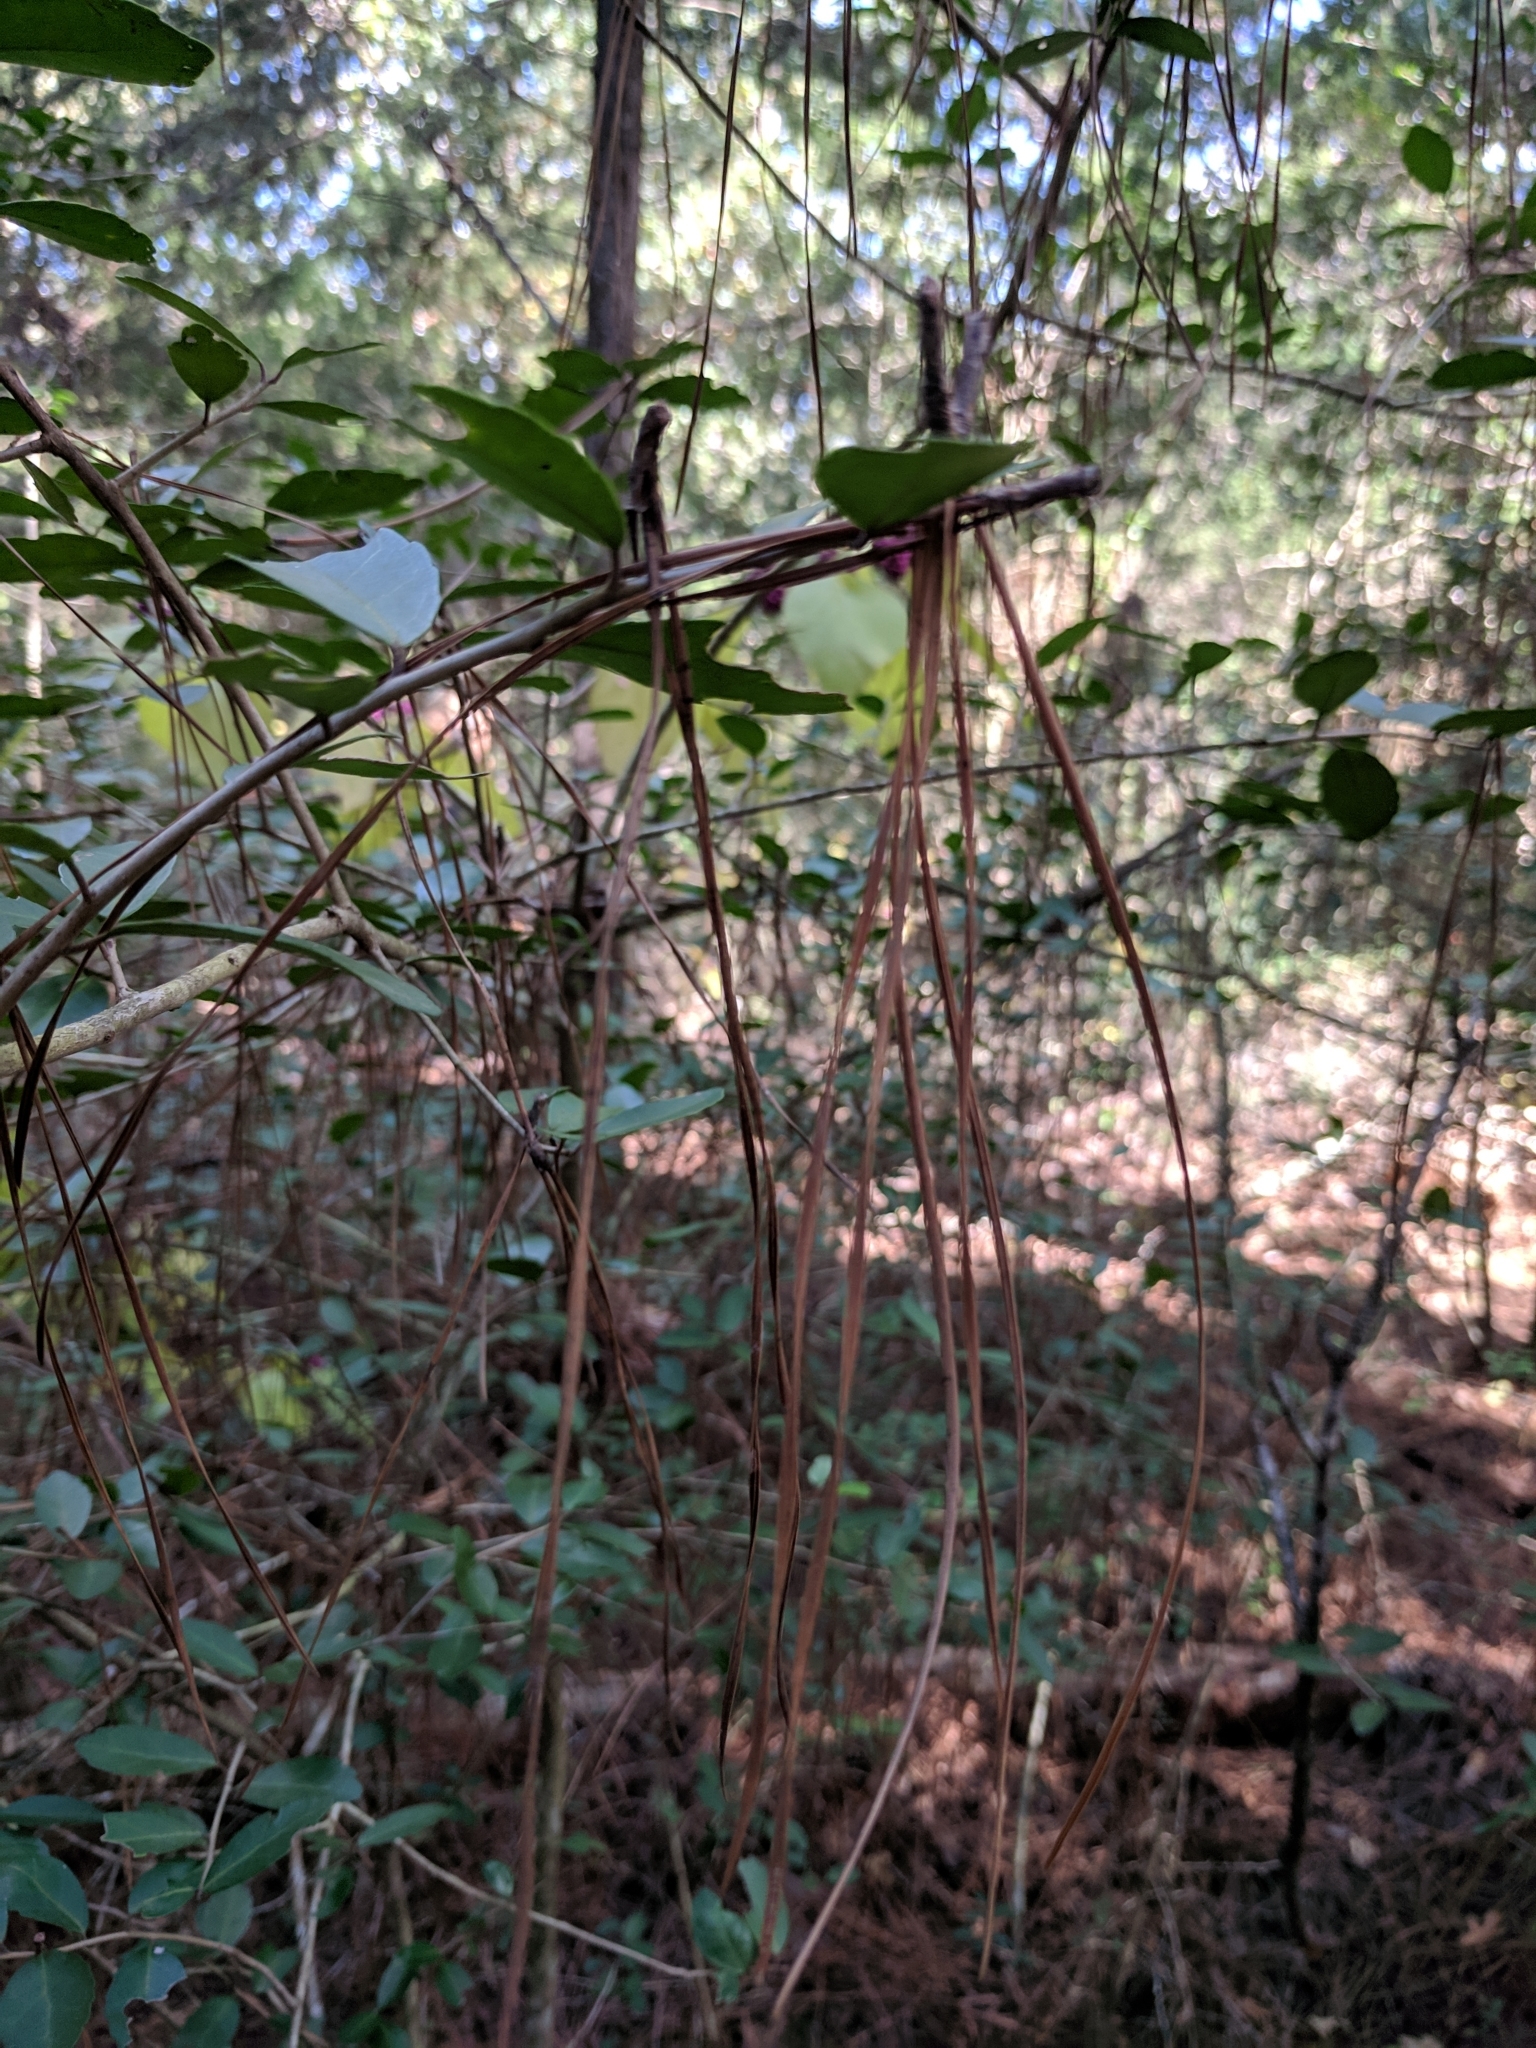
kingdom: Plantae
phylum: Tracheophyta
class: Pinopsida
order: Pinales
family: Pinaceae
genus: Pinus
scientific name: Pinus taeda
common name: Loblolly pine
